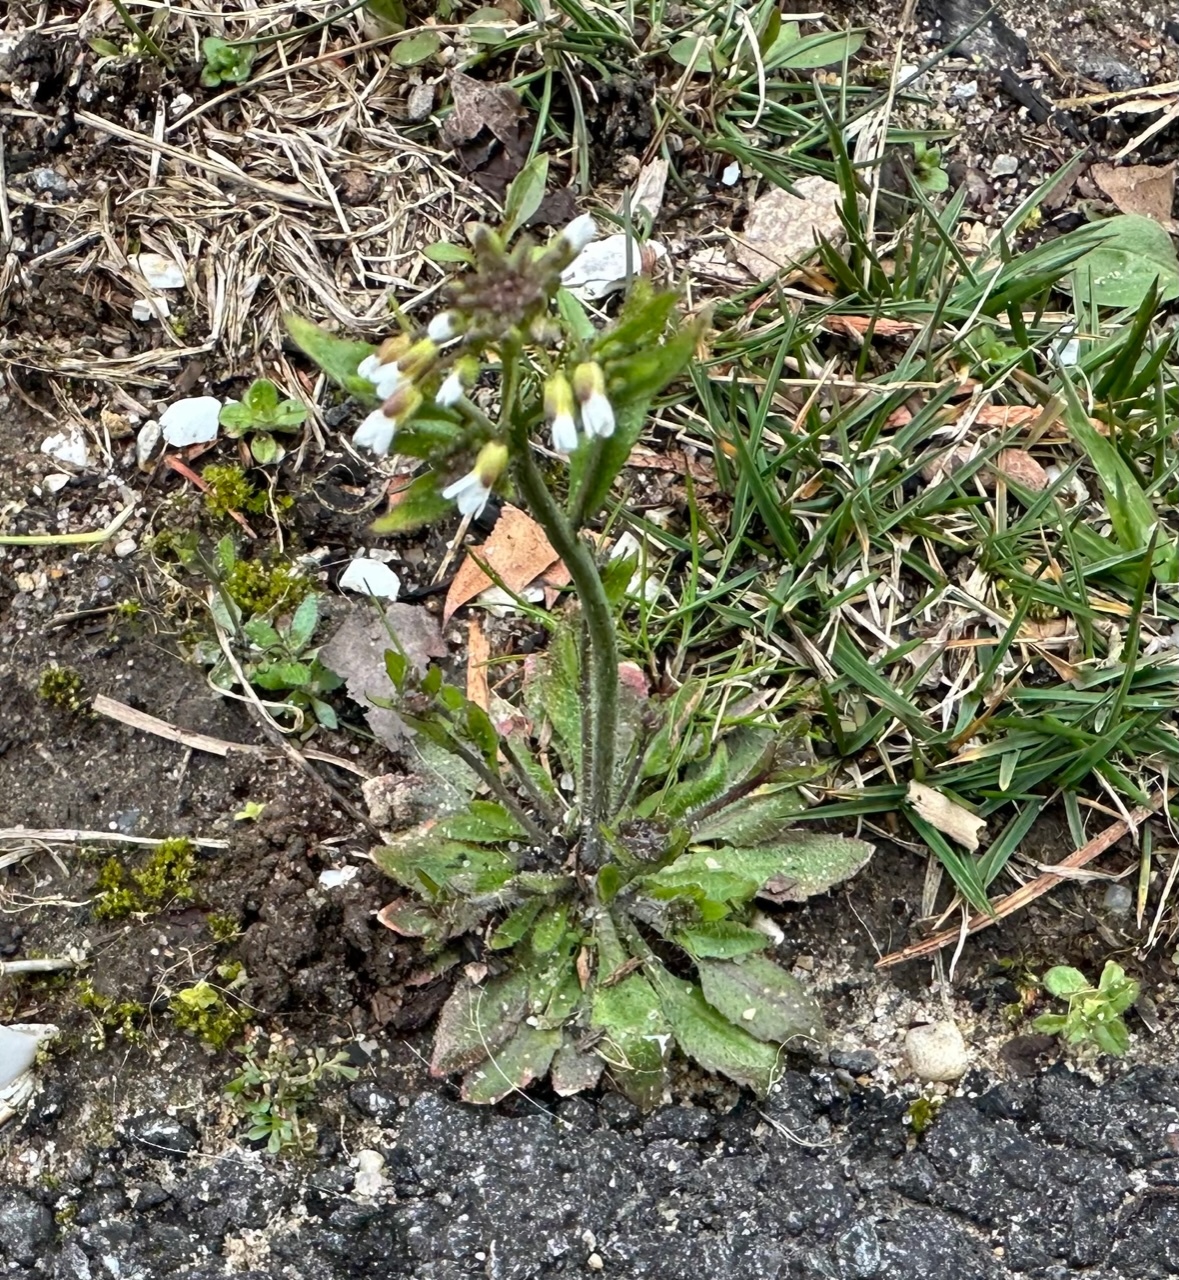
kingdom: Plantae
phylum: Tracheophyta
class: Magnoliopsida
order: Brassicales
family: Brassicaceae
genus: Arabidopsis
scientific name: Arabidopsis thaliana
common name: Thale cress
